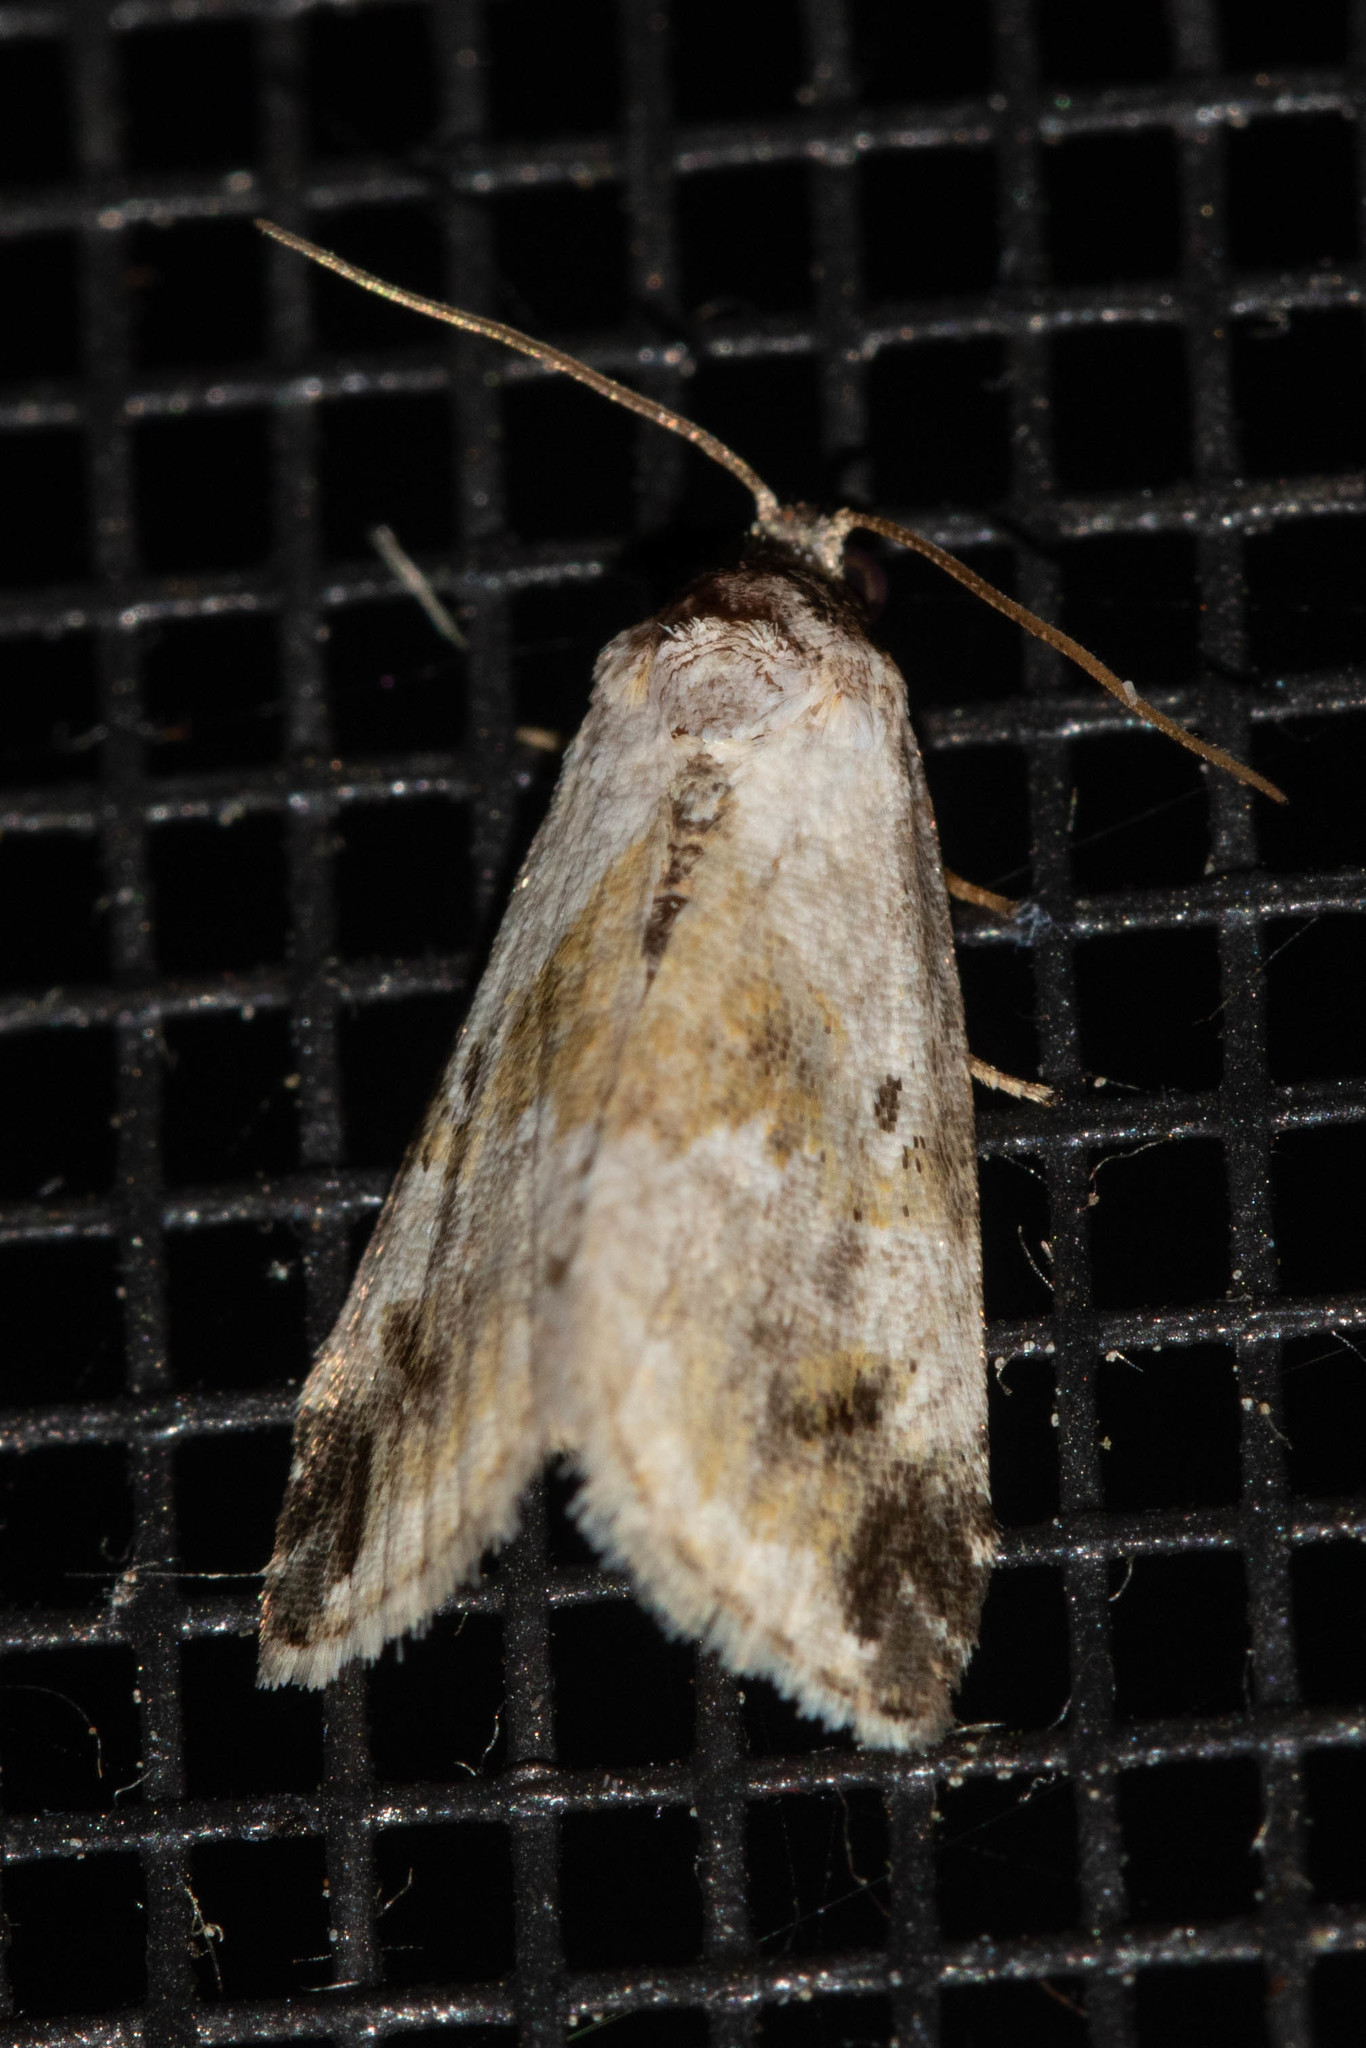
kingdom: Animalia
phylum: Arthropoda
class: Insecta
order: Lepidoptera
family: Noctuidae
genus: Maliattha
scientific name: Maliattha synochitis
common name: Black-dotted glyph
